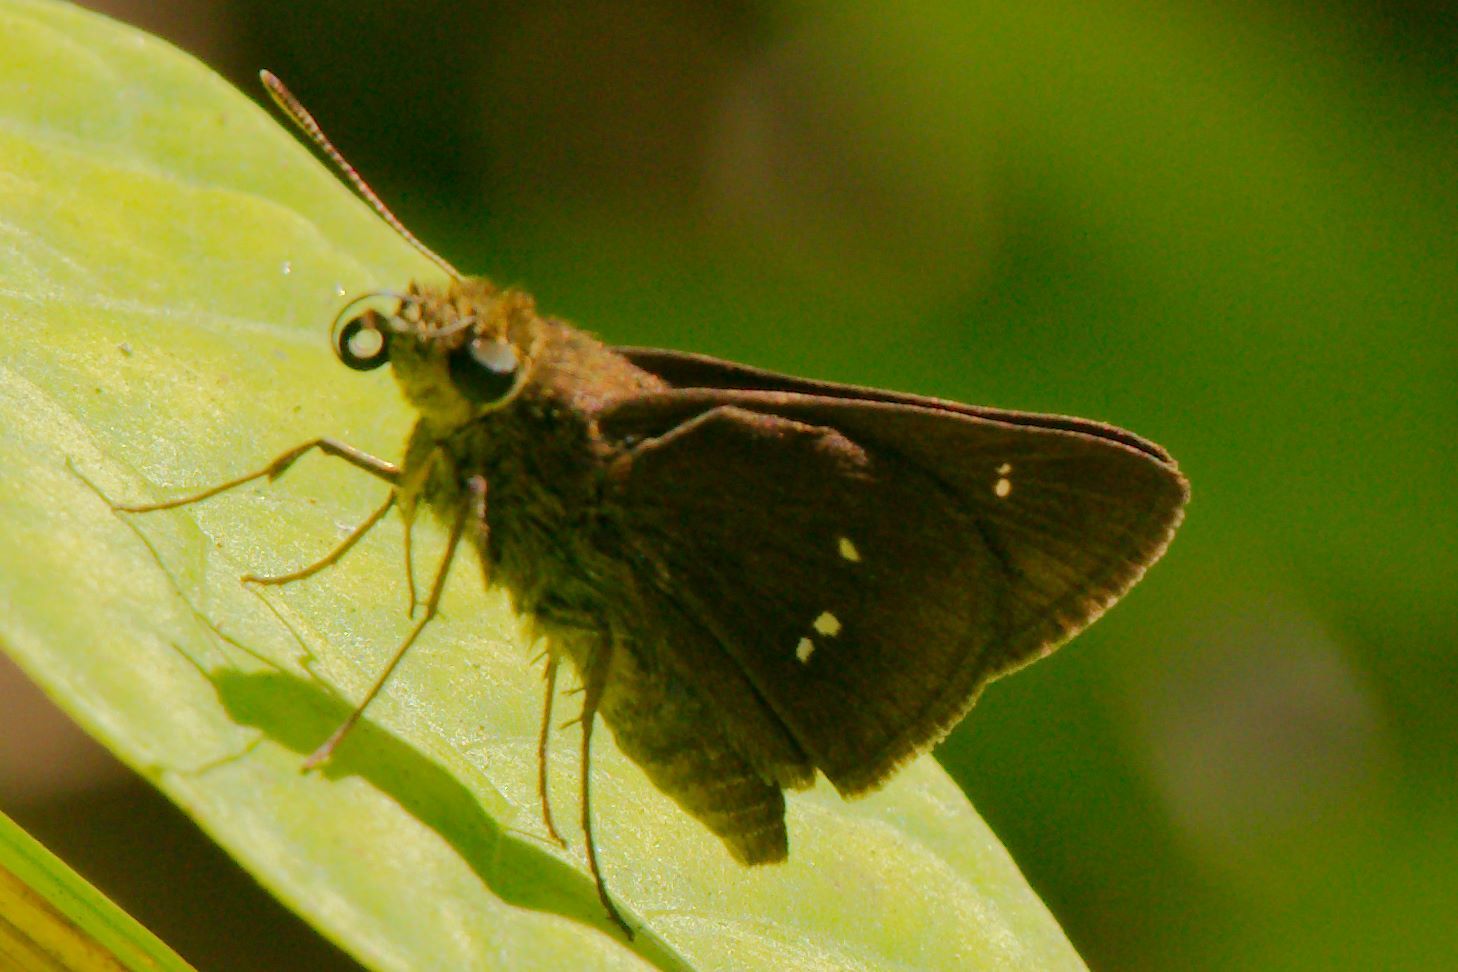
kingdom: Animalia
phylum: Arthropoda
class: Insecta
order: Lepidoptera
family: Hesperiidae
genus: Oligoria
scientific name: Oligoria maculata
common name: Twin-spot skipper
